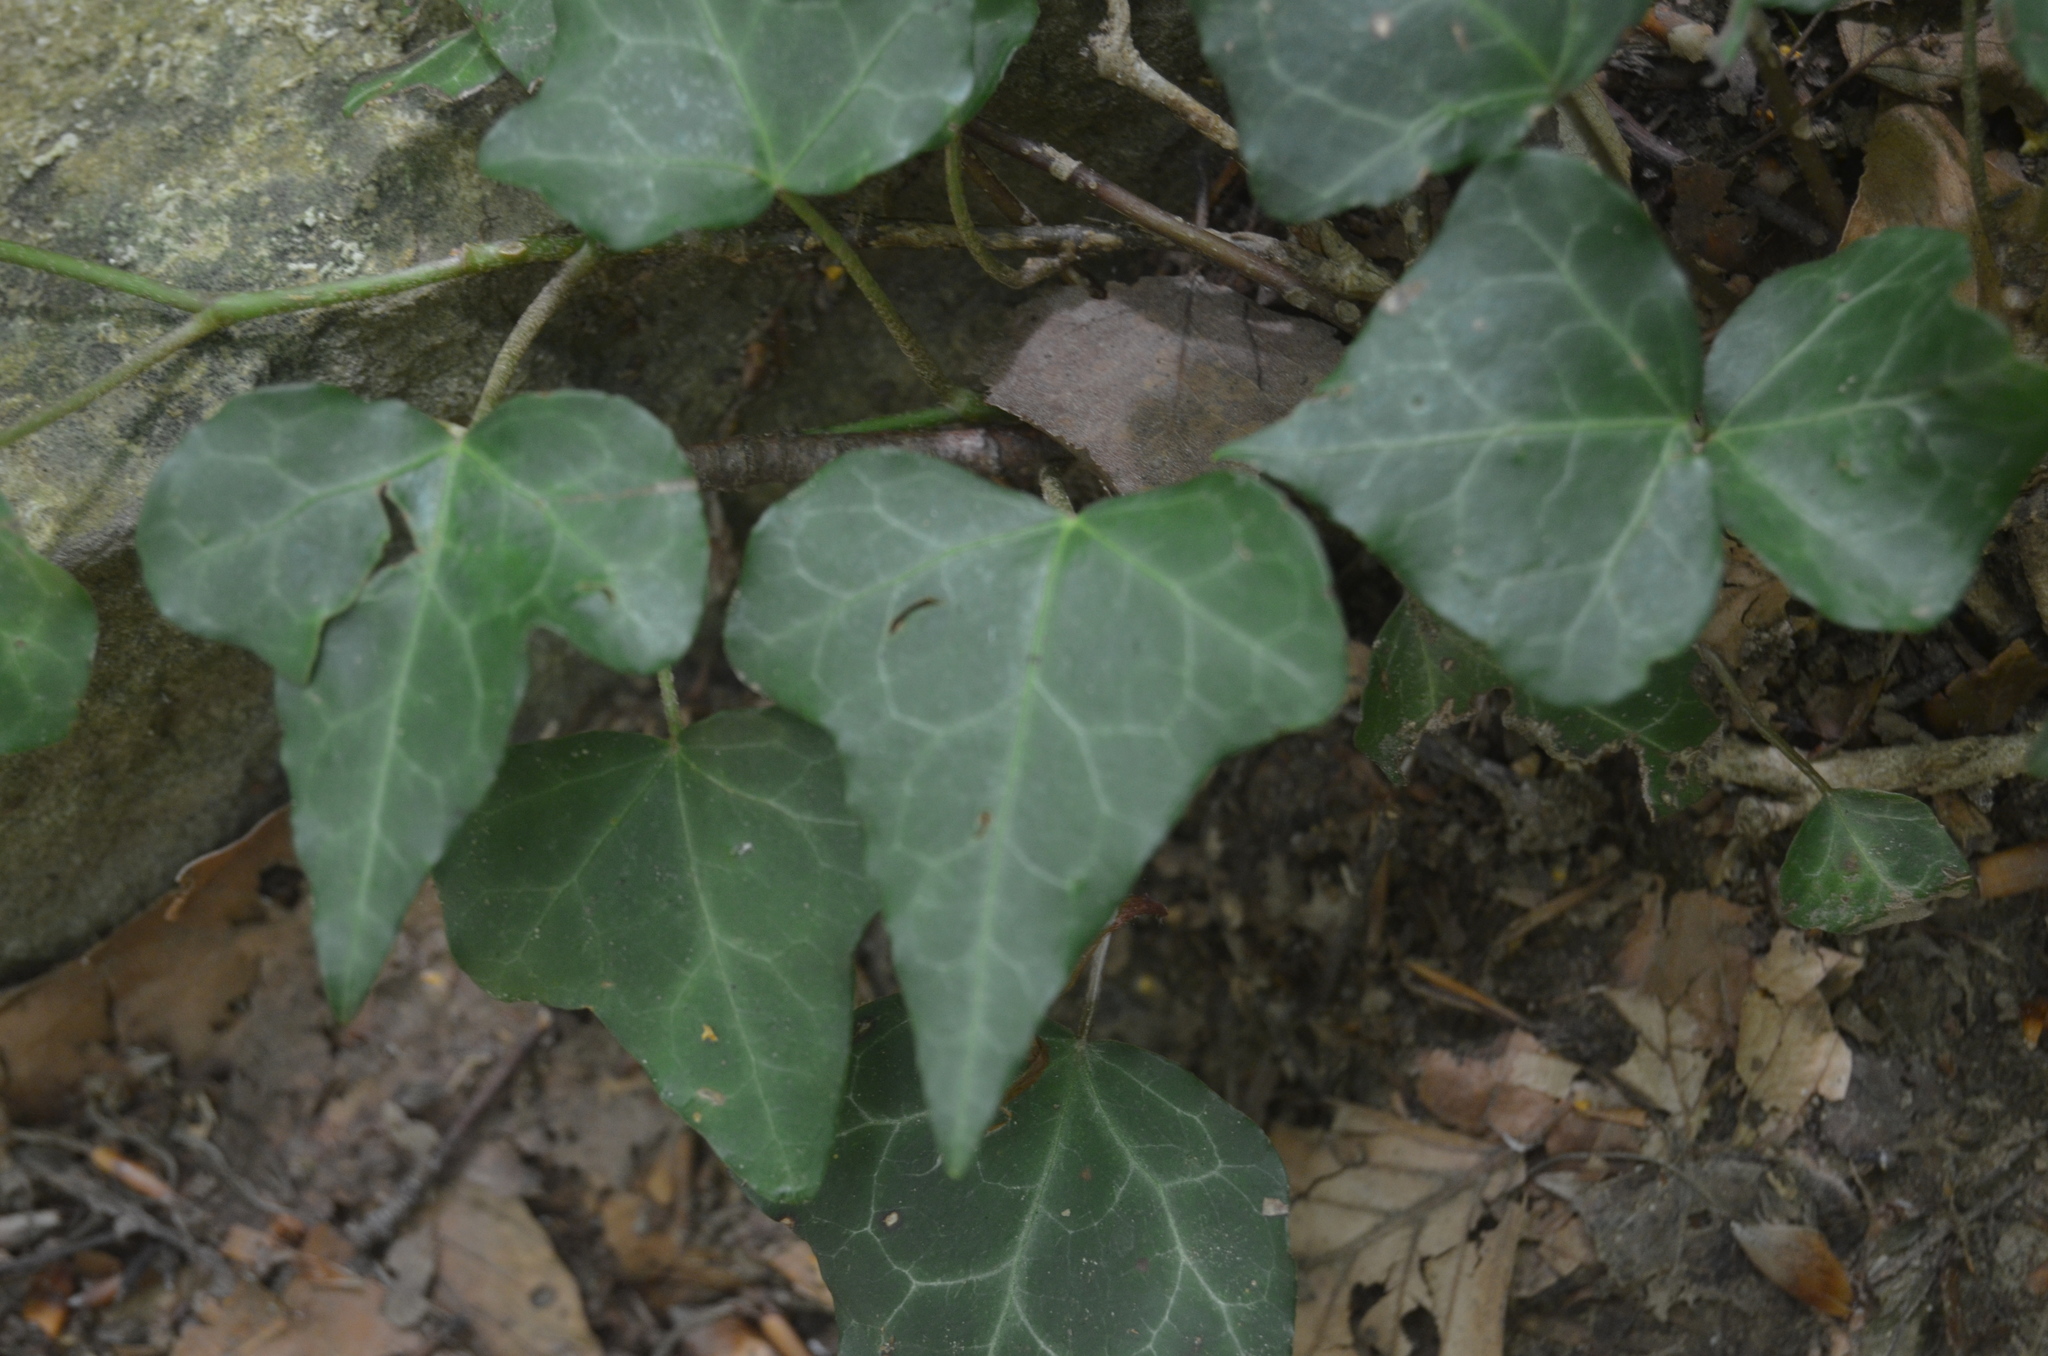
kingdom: Plantae
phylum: Tracheophyta
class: Magnoliopsida
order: Apiales
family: Araliaceae
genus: Hedera
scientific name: Hedera helix
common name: Ivy
